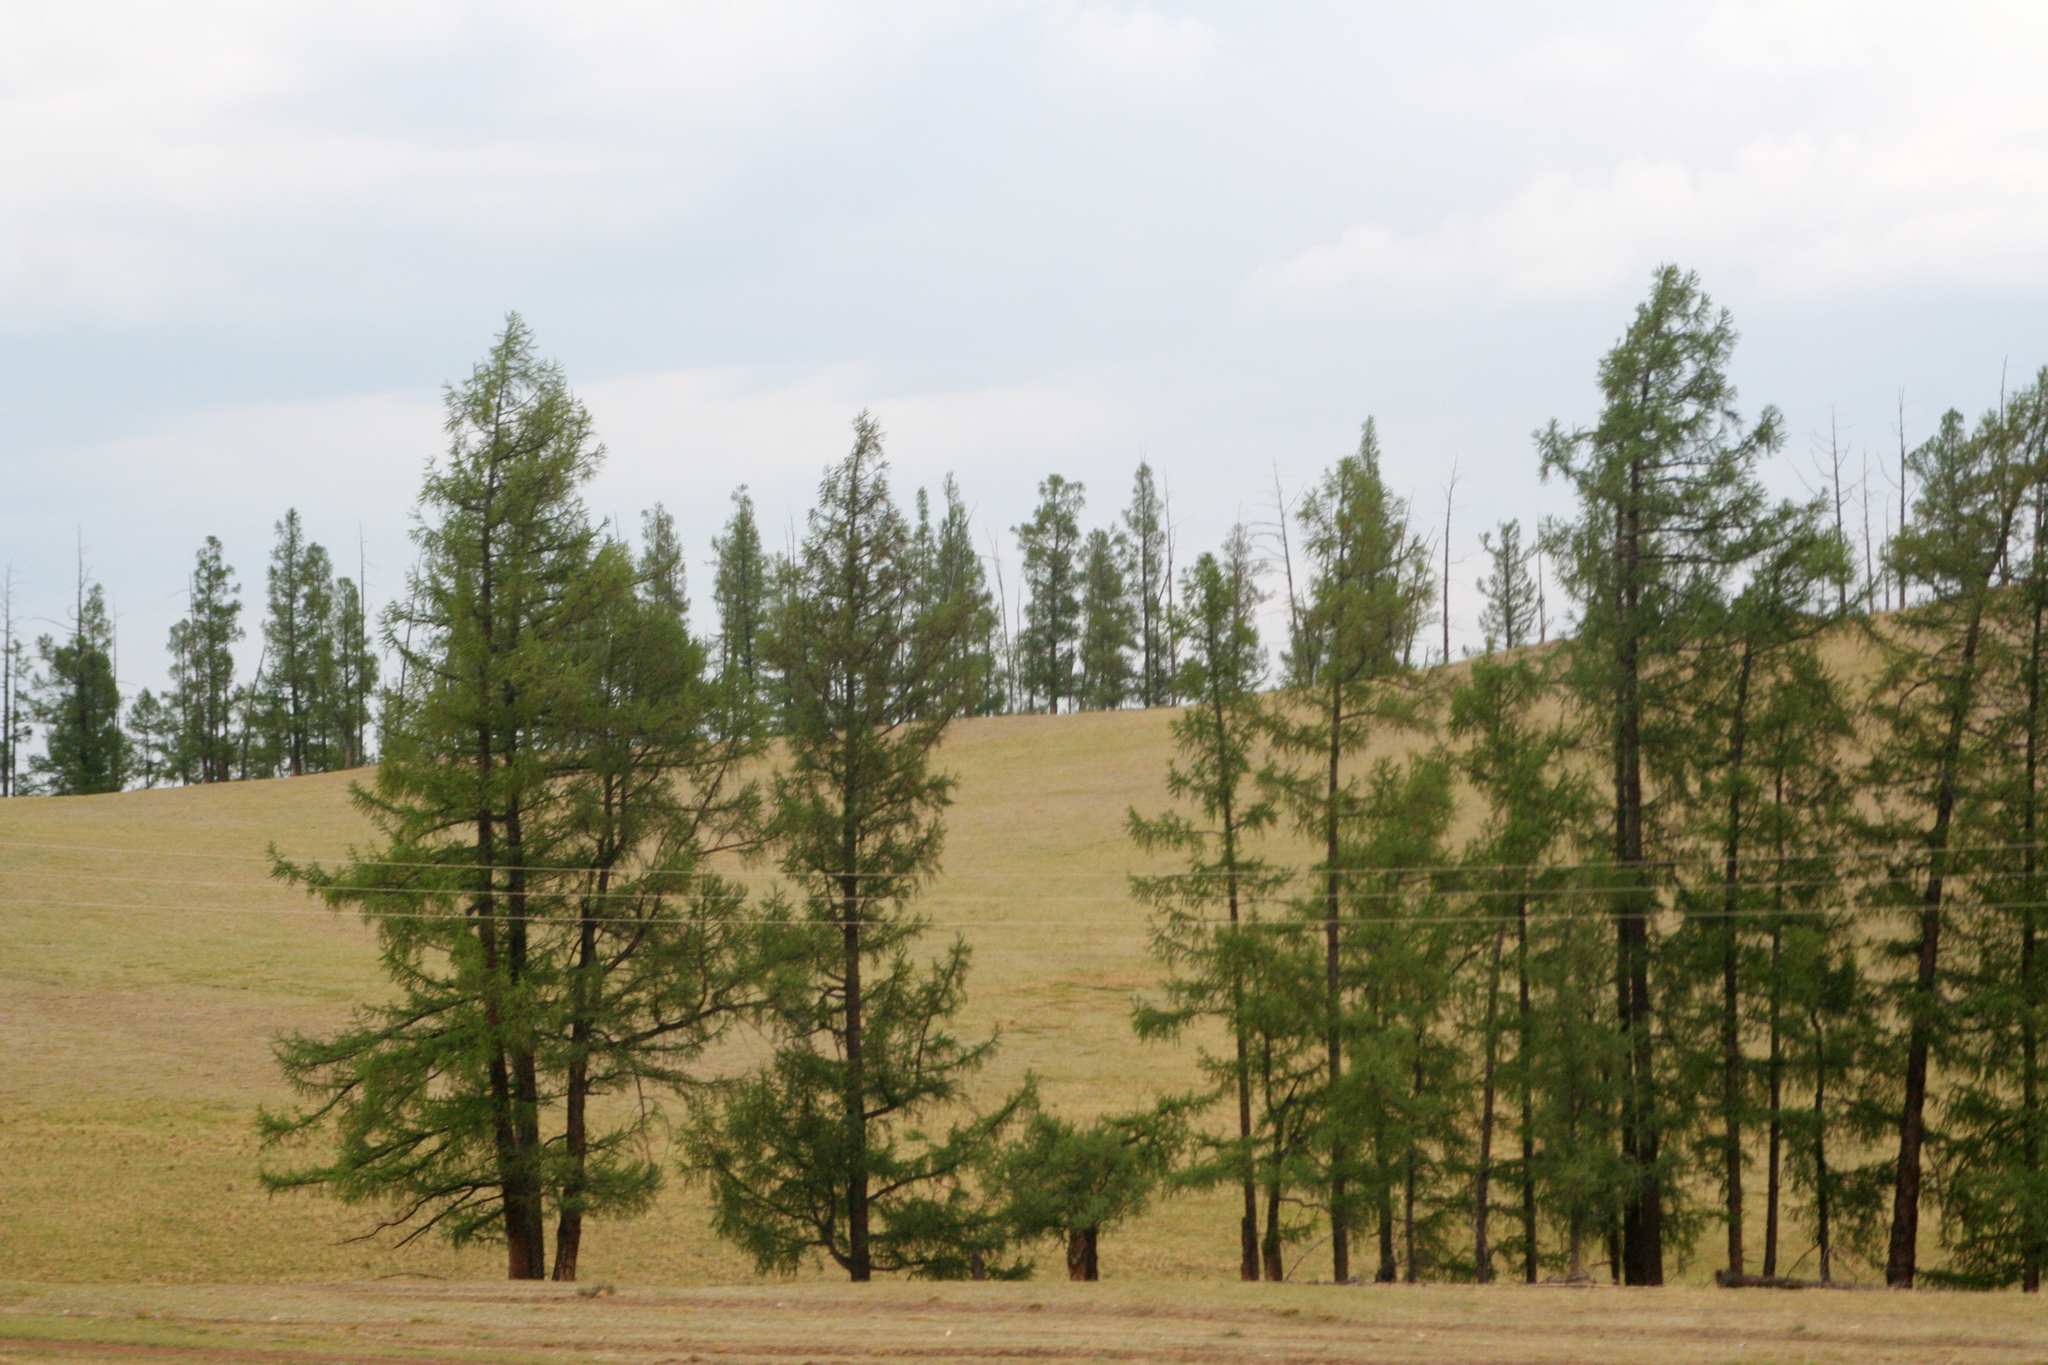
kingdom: Plantae
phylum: Tracheophyta
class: Pinopsida
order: Pinales
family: Pinaceae
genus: Larix
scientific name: Larix sibirica
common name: Siberian larch
